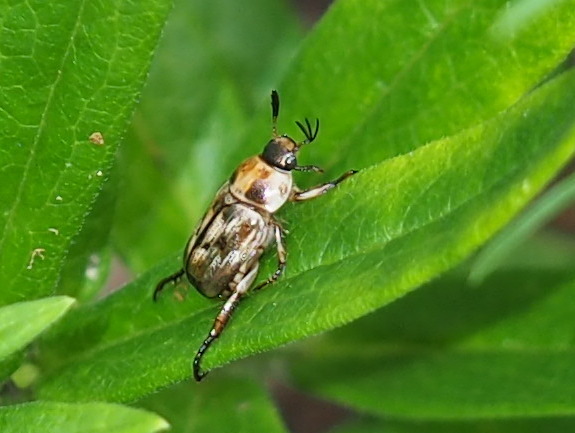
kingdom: Animalia
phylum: Arthropoda
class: Insecta
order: Coleoptera
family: Scarabaeidae
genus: Exomala
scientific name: Exomala orientalis
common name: Oriental beetle
